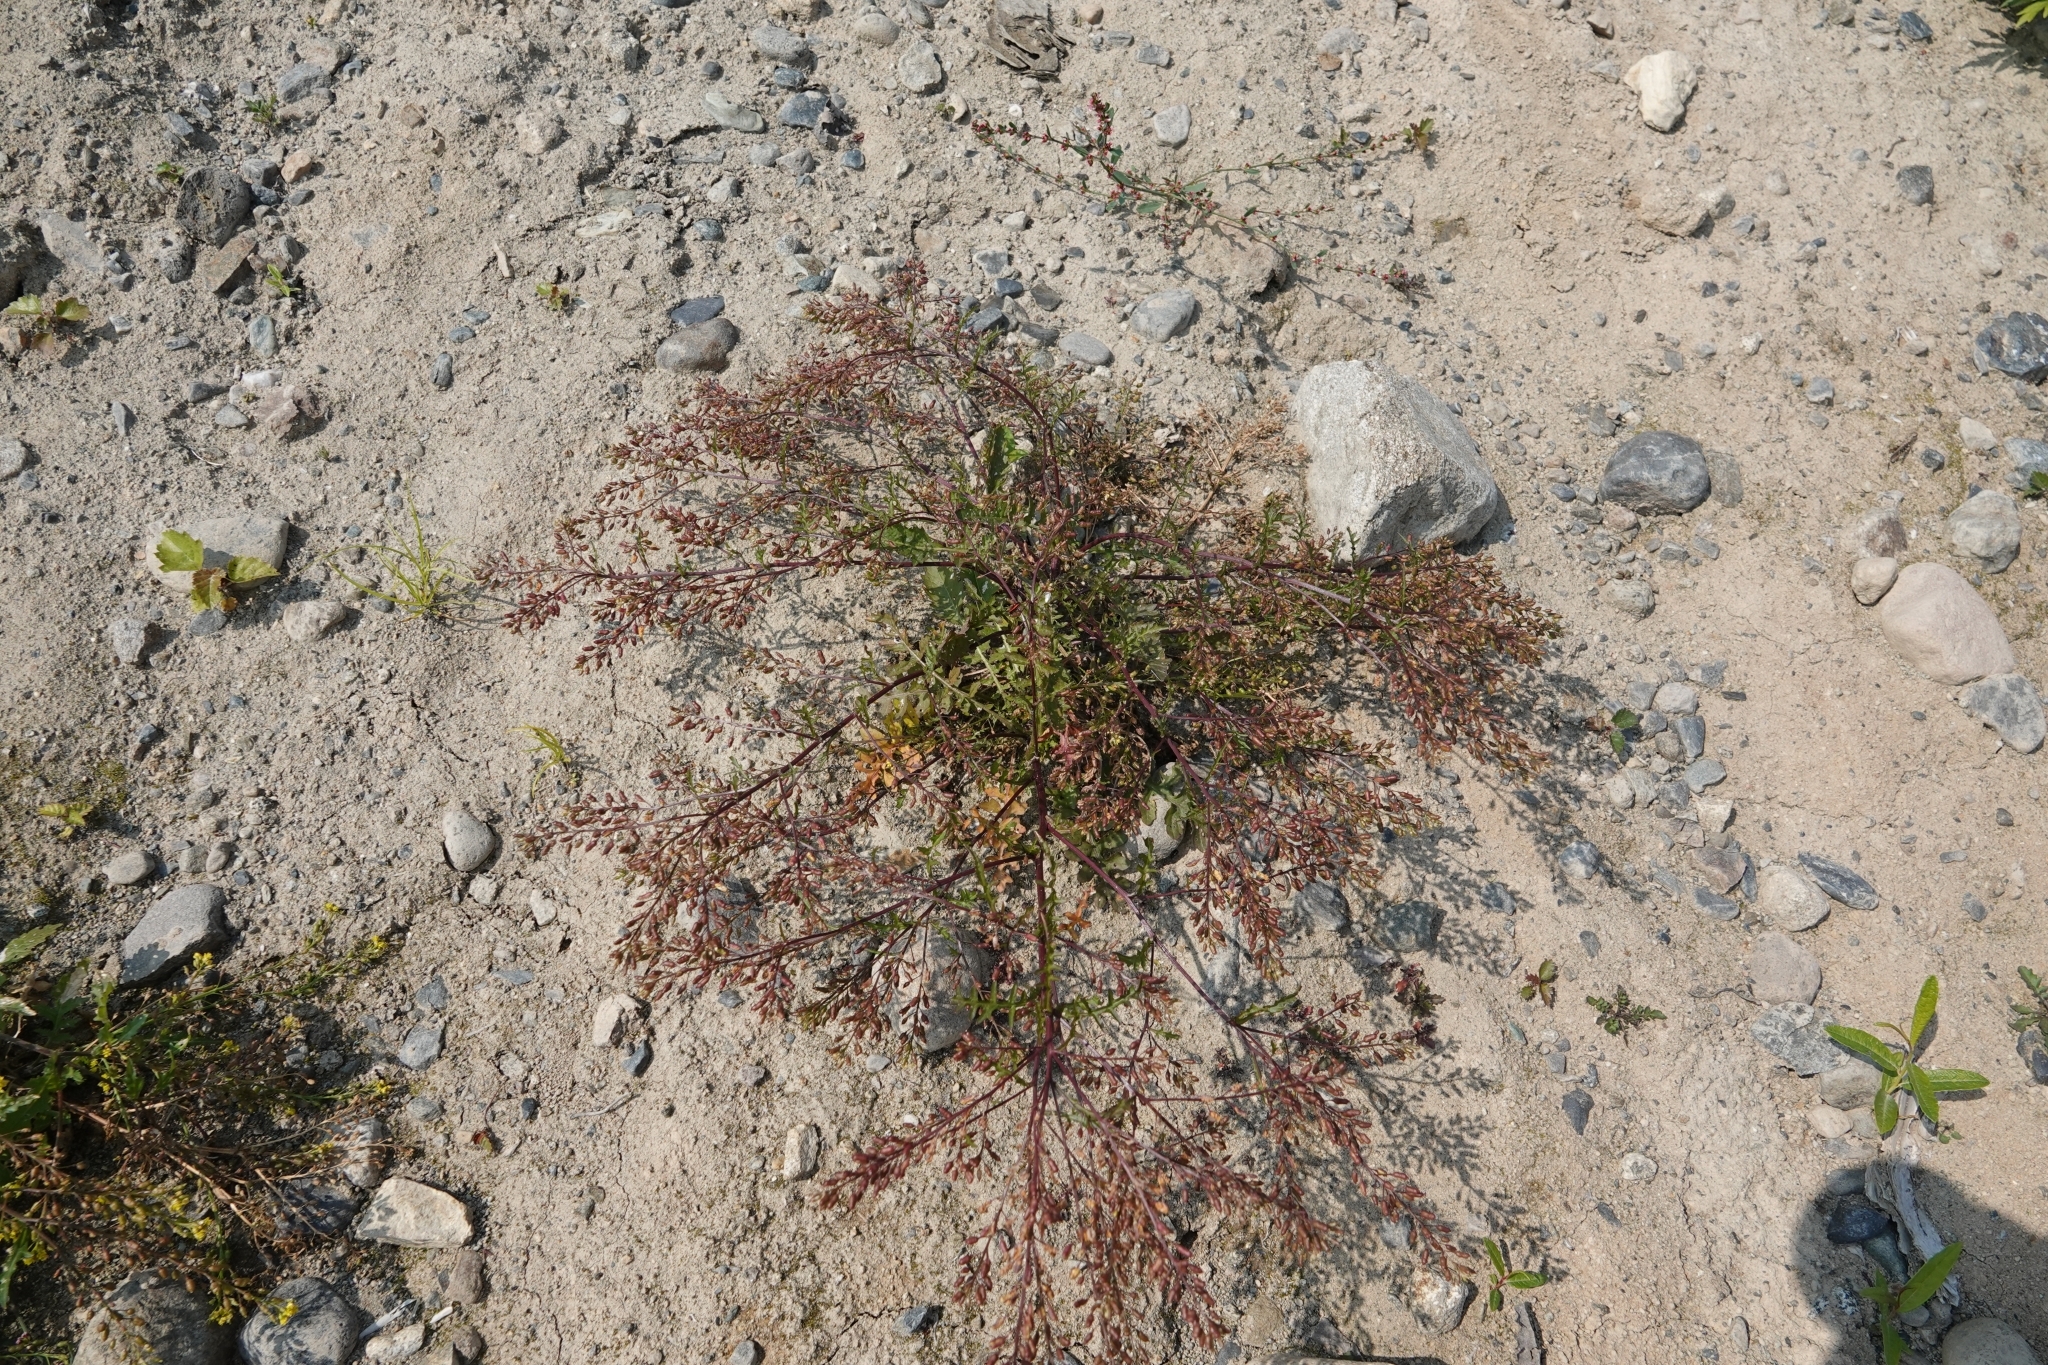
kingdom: Plantae
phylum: Tracheophyta
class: Magnoliopsida
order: Brassicales
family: Brassicaceae
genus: Rorippa
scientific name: Rorippa palustris
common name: Marsh yellow-cress
